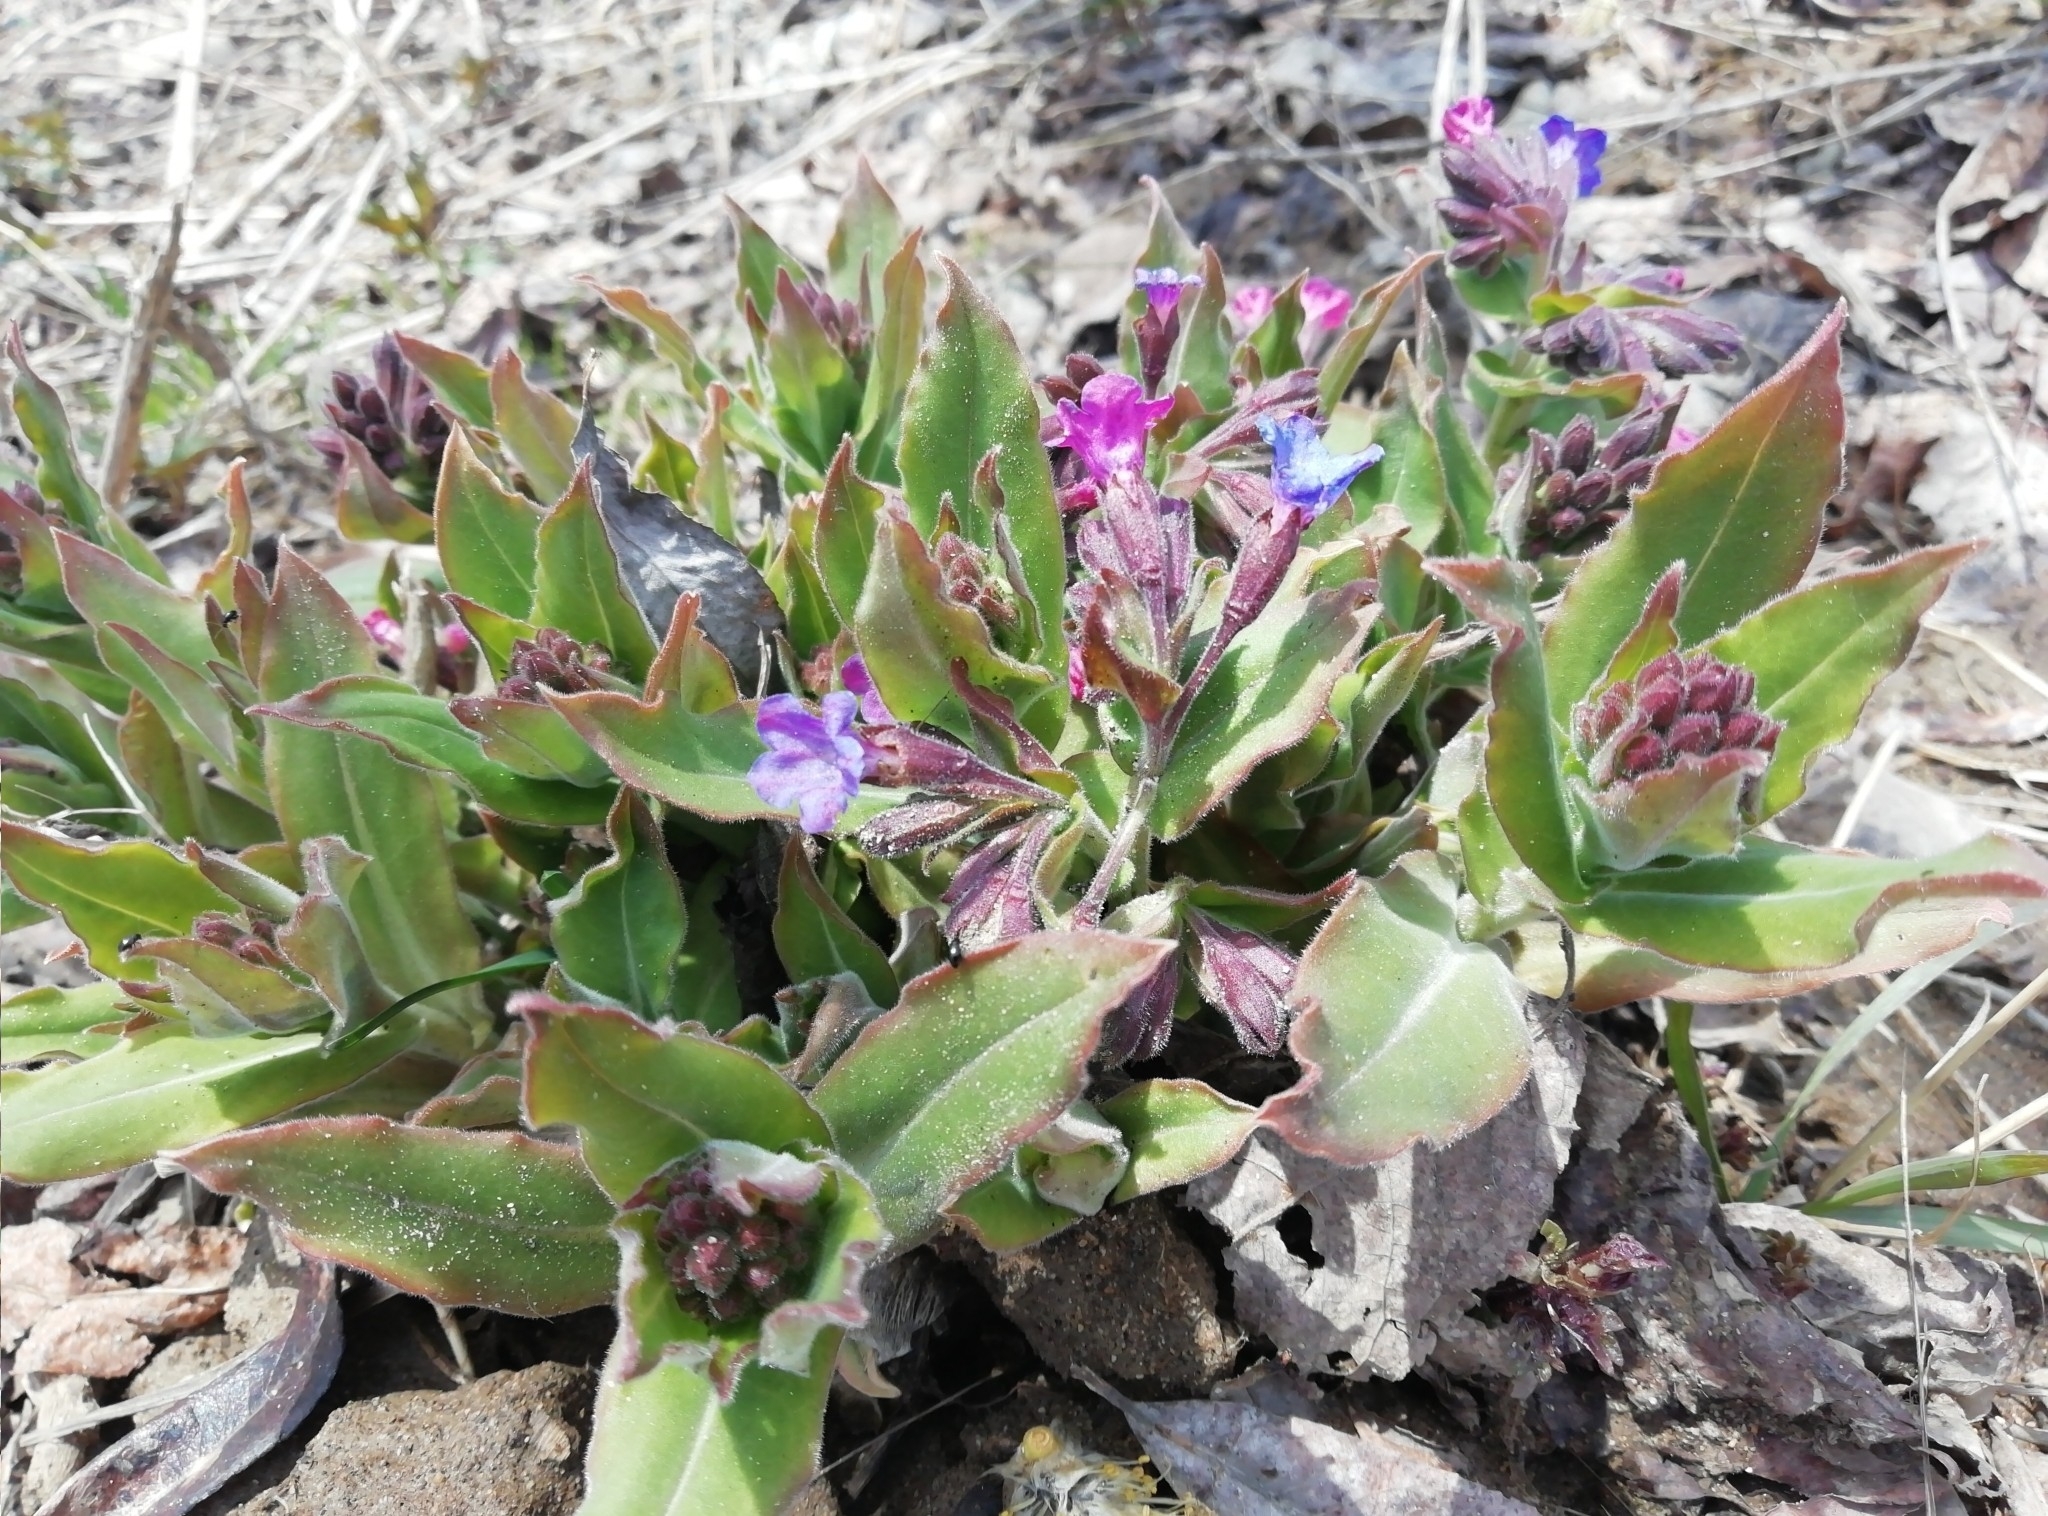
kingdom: Plantae
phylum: Tracheophyta
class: Magnoliopsida
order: Boraginales
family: Boraginaceae
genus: Pulmonaria
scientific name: Pulmonaria mollis
